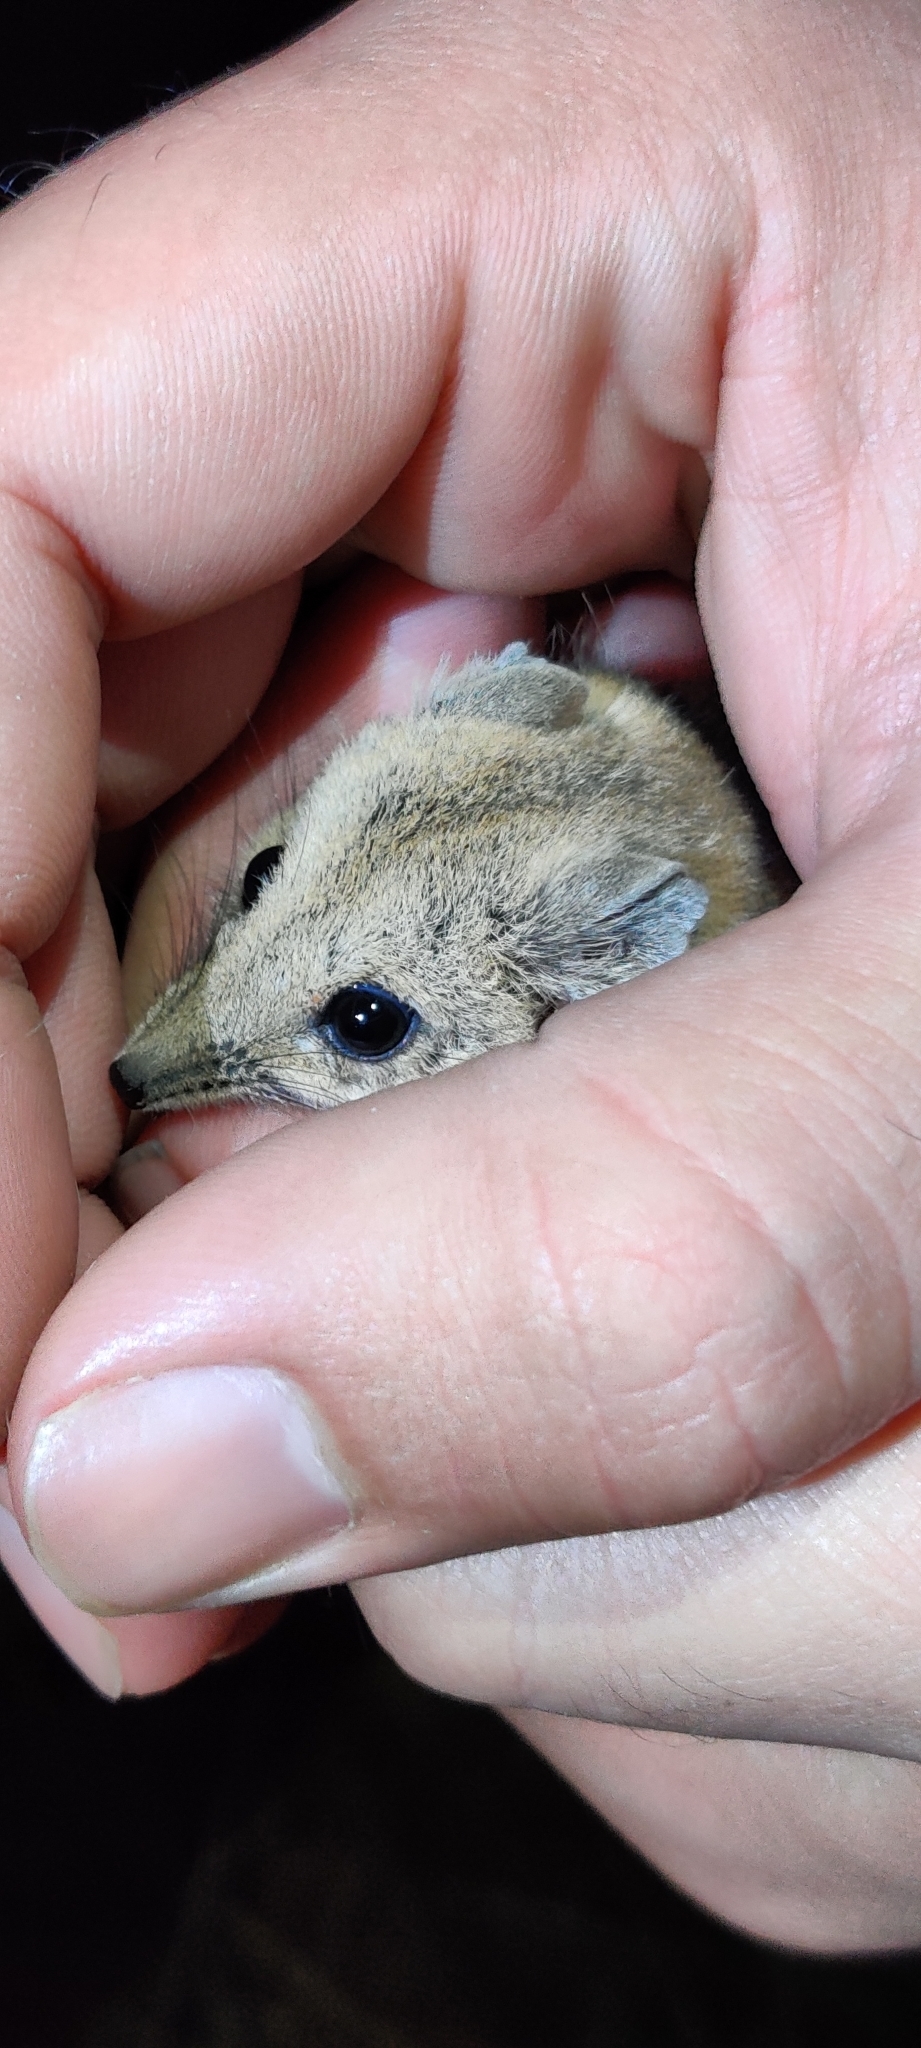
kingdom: Animalia
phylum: Chordata
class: Mammalia
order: Dasyuromorphia
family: Dasyuridae
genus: Sminthopsis
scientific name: Sminthopsis crassicaudata
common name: Fat-tailed dunnart
